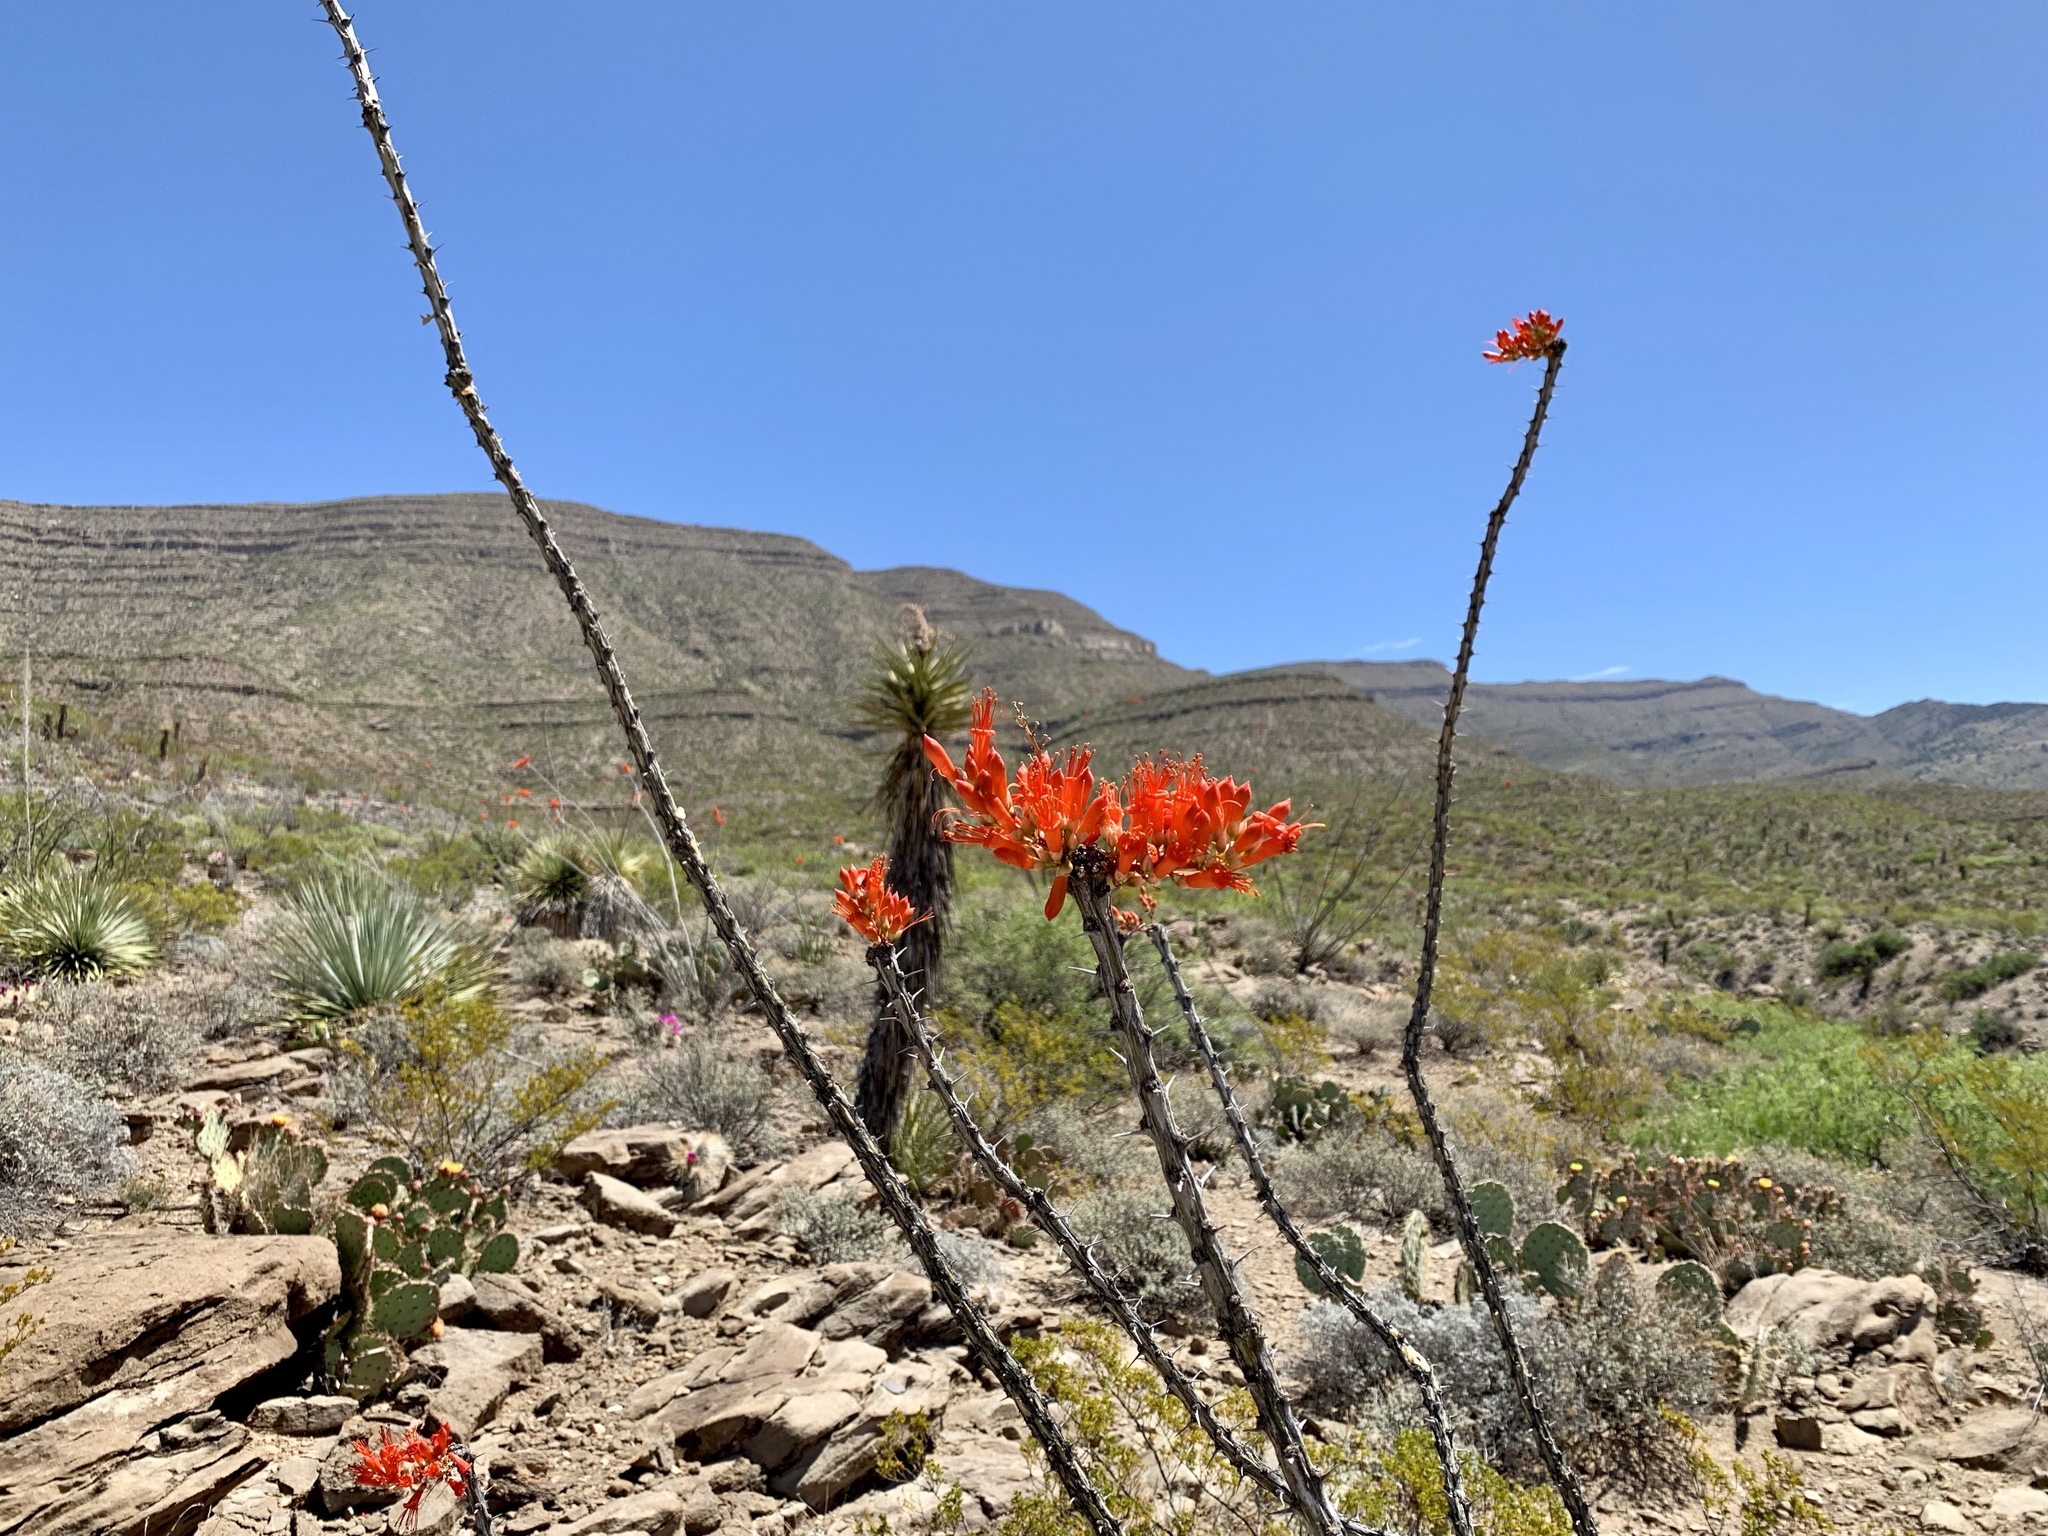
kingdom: Plantae
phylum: Tracheophyta
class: Magnoliopsida
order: Ericales
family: Fouquieriaceae
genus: Fouquieria
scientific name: Fouquieria splendens
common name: Vine-cactus
